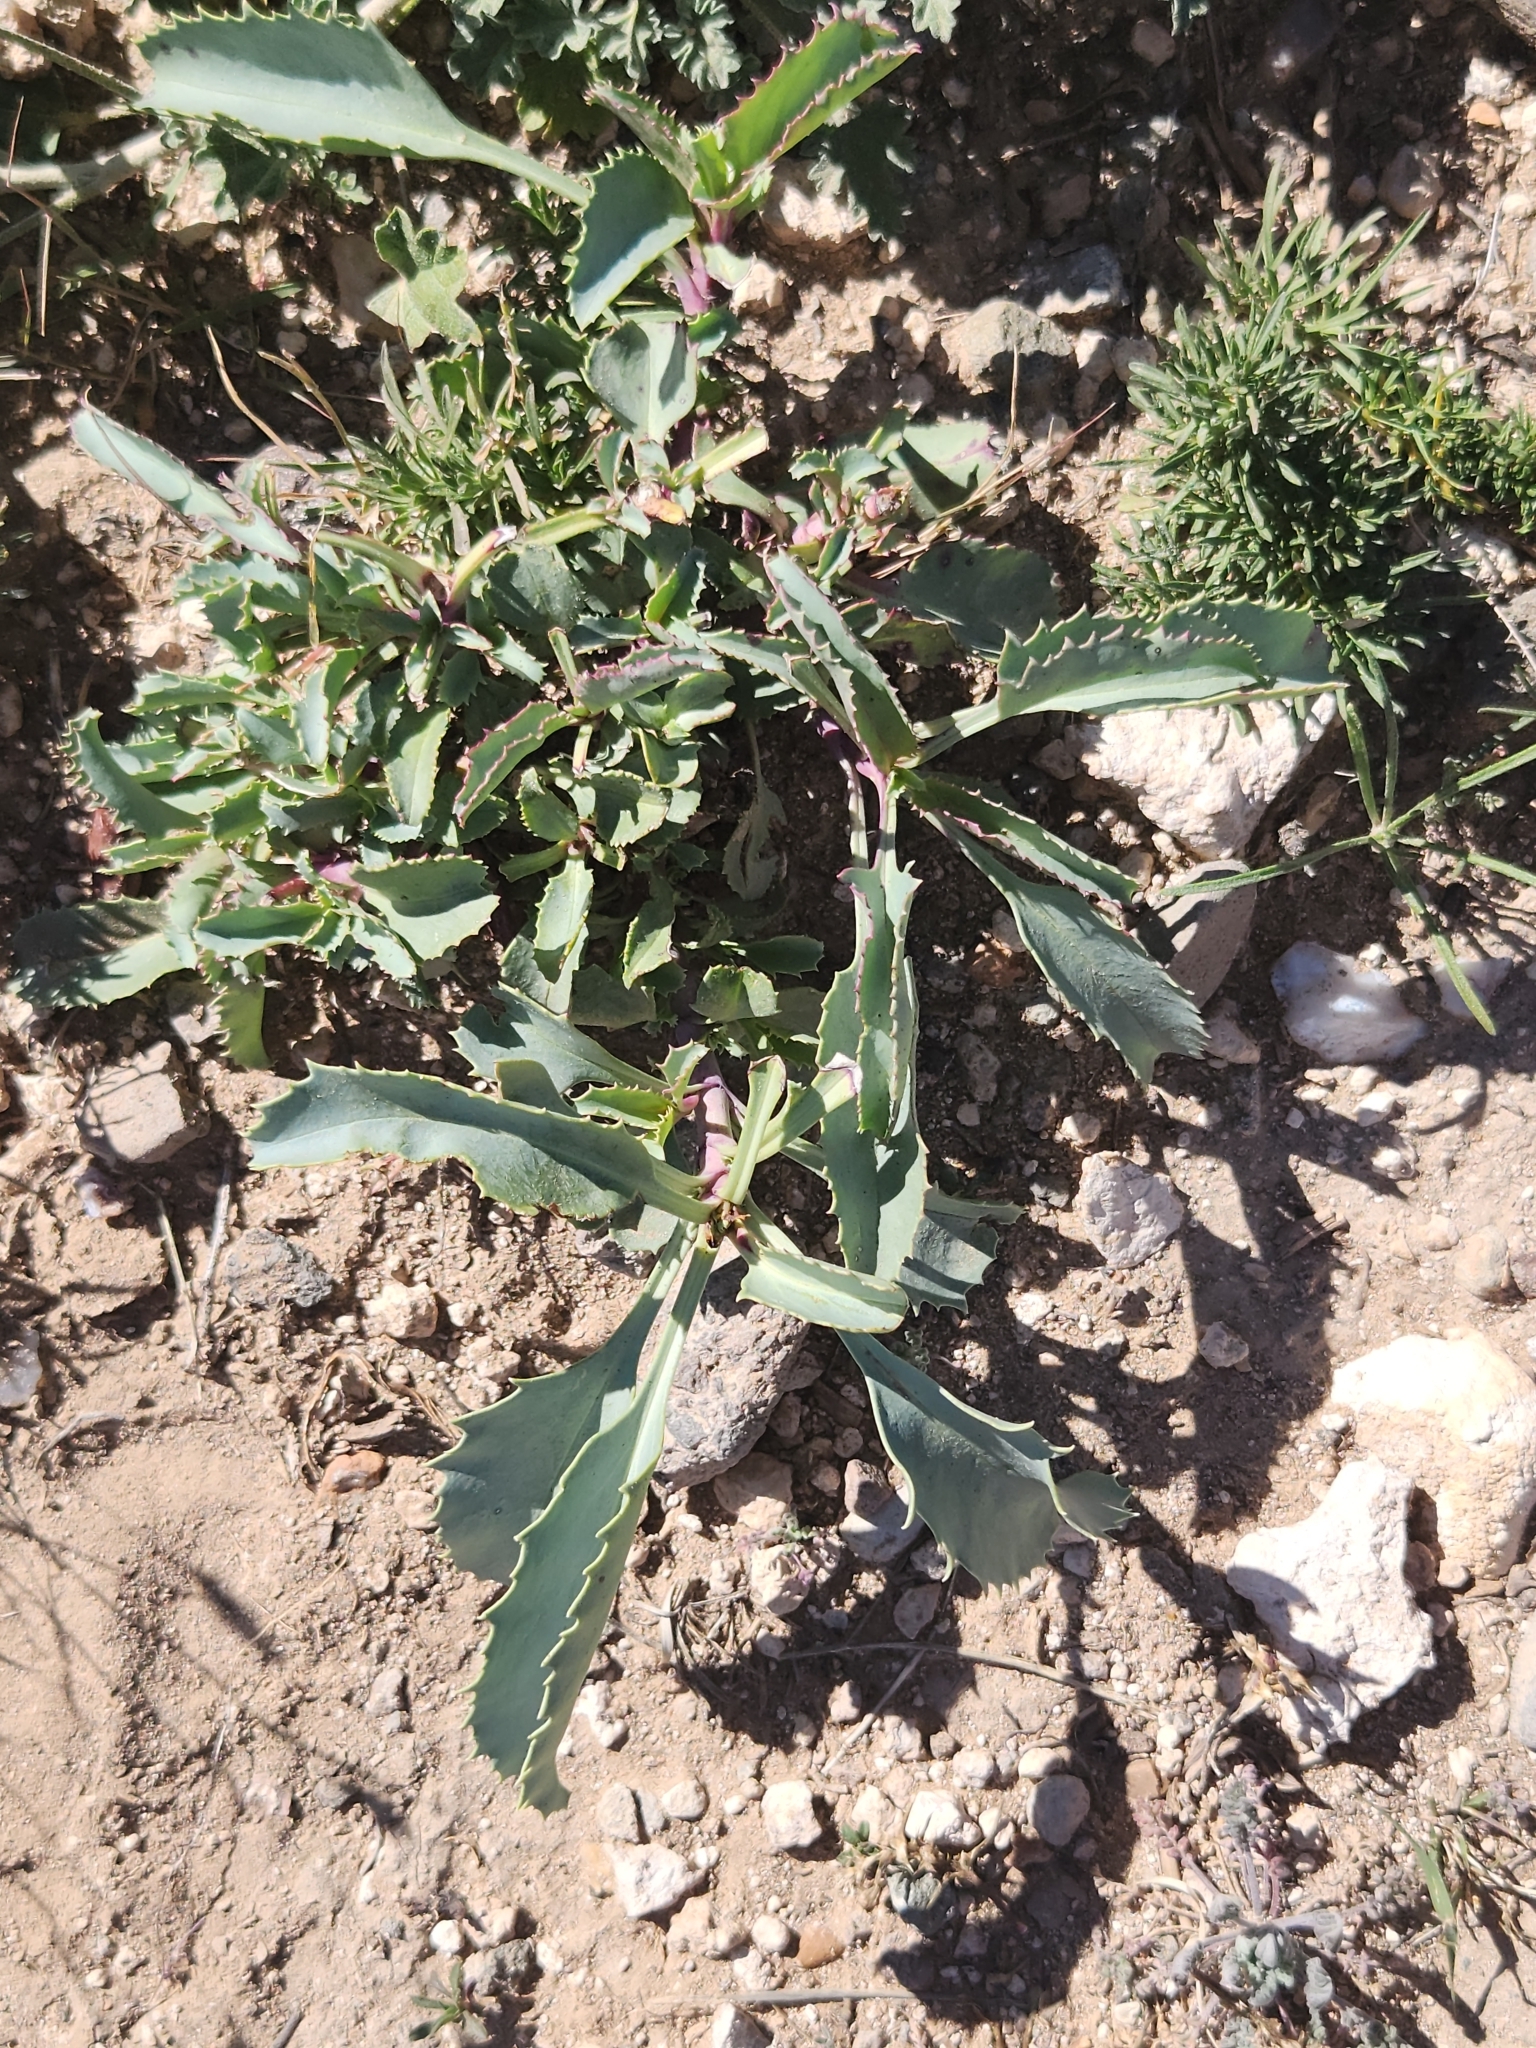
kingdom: Plantae
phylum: Tracheophyta
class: Magnoliopsida
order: Lamiales
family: Plantaginaceae
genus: Penstemon
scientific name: Penstemon palmeri
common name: Palmer penstemon
